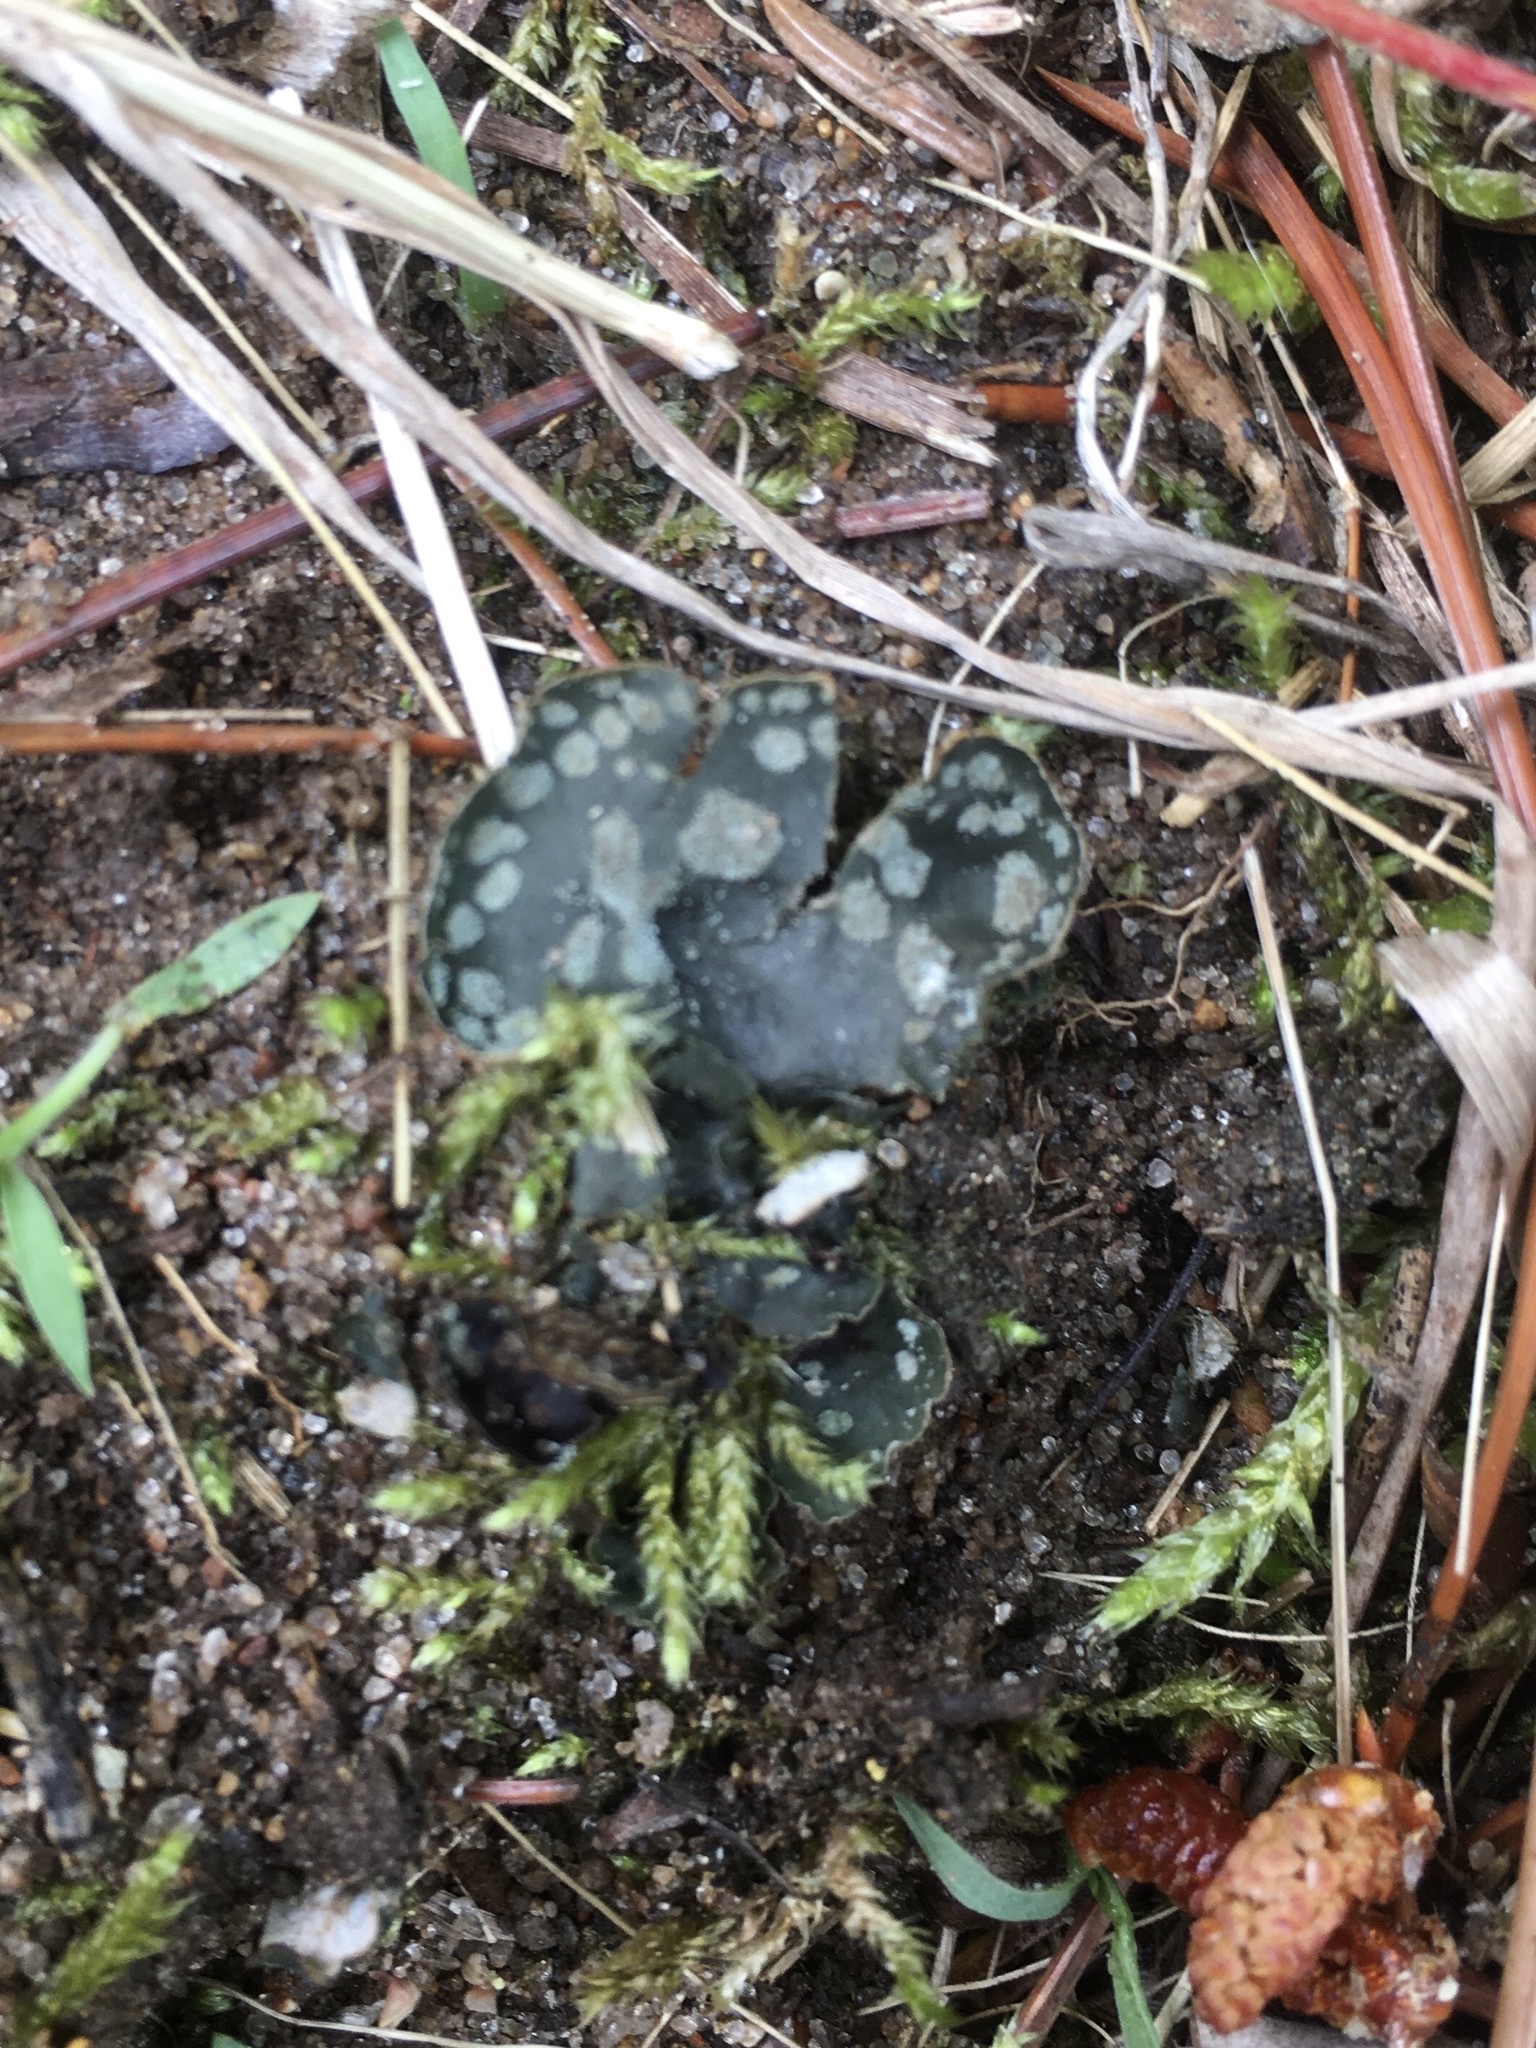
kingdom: Fungi
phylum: Ascomycota
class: Lecanoromycetes
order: Peltigerales
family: Peltigeraceae
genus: Peltigera
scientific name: Peltigera didactyla
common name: Alternating dog lichen
